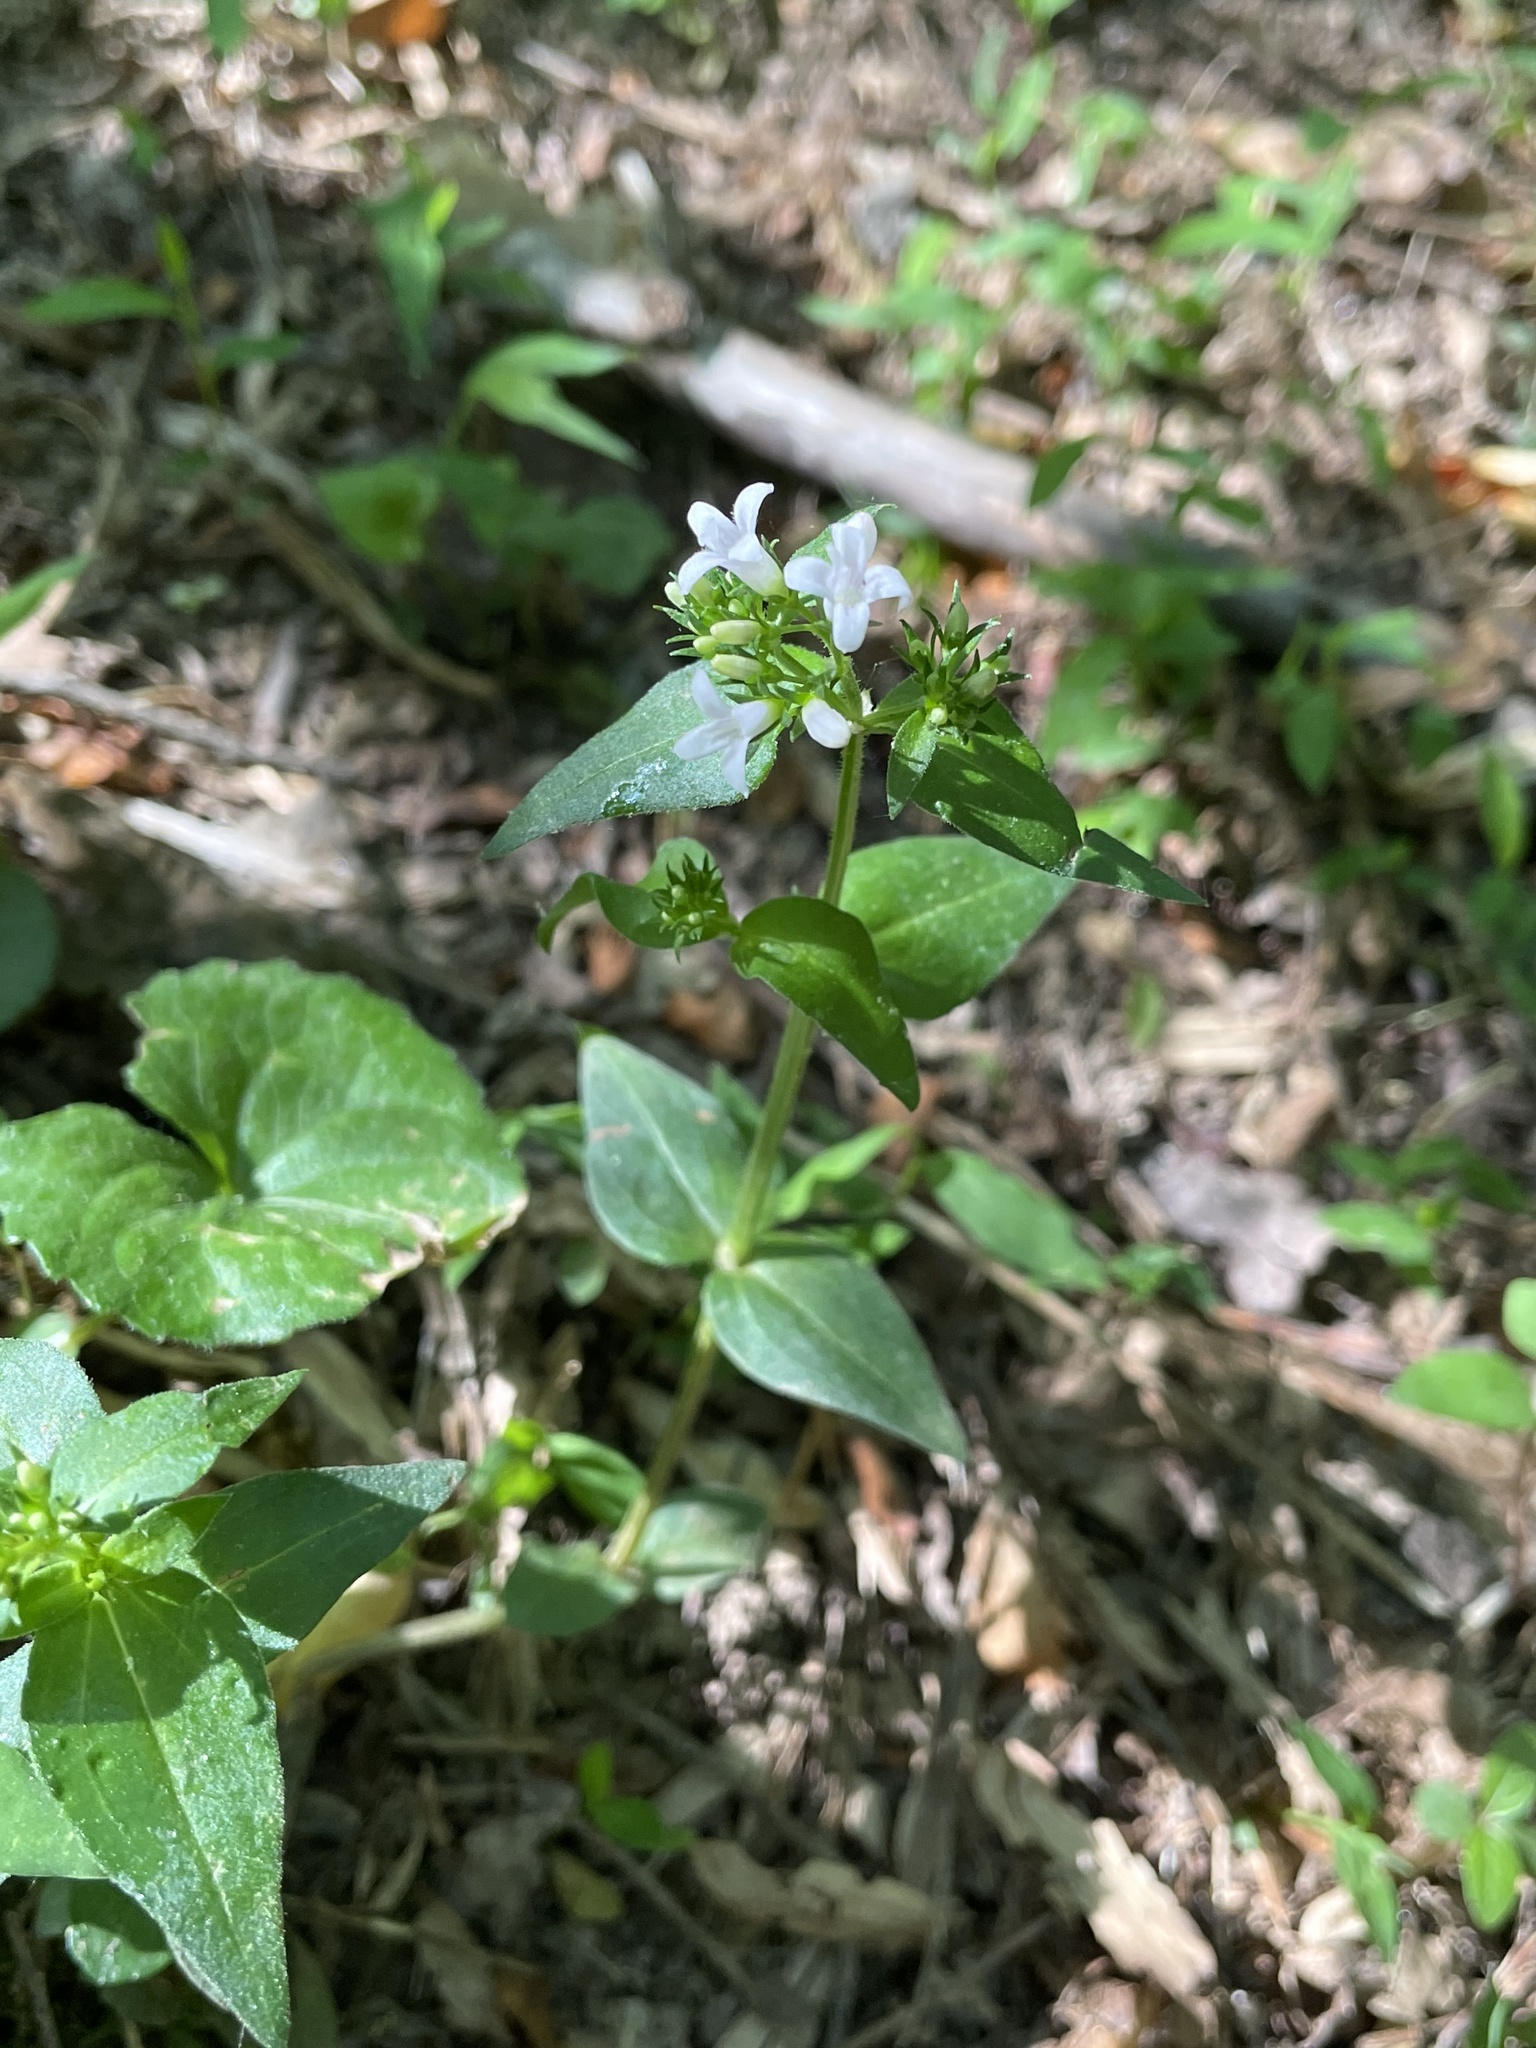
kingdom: Plantae
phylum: Tracheophyta
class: Magnoliopsida
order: Gentianales
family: Rubiaceae
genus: Houstonia
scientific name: Houstonia purpurea
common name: Summer bluet
